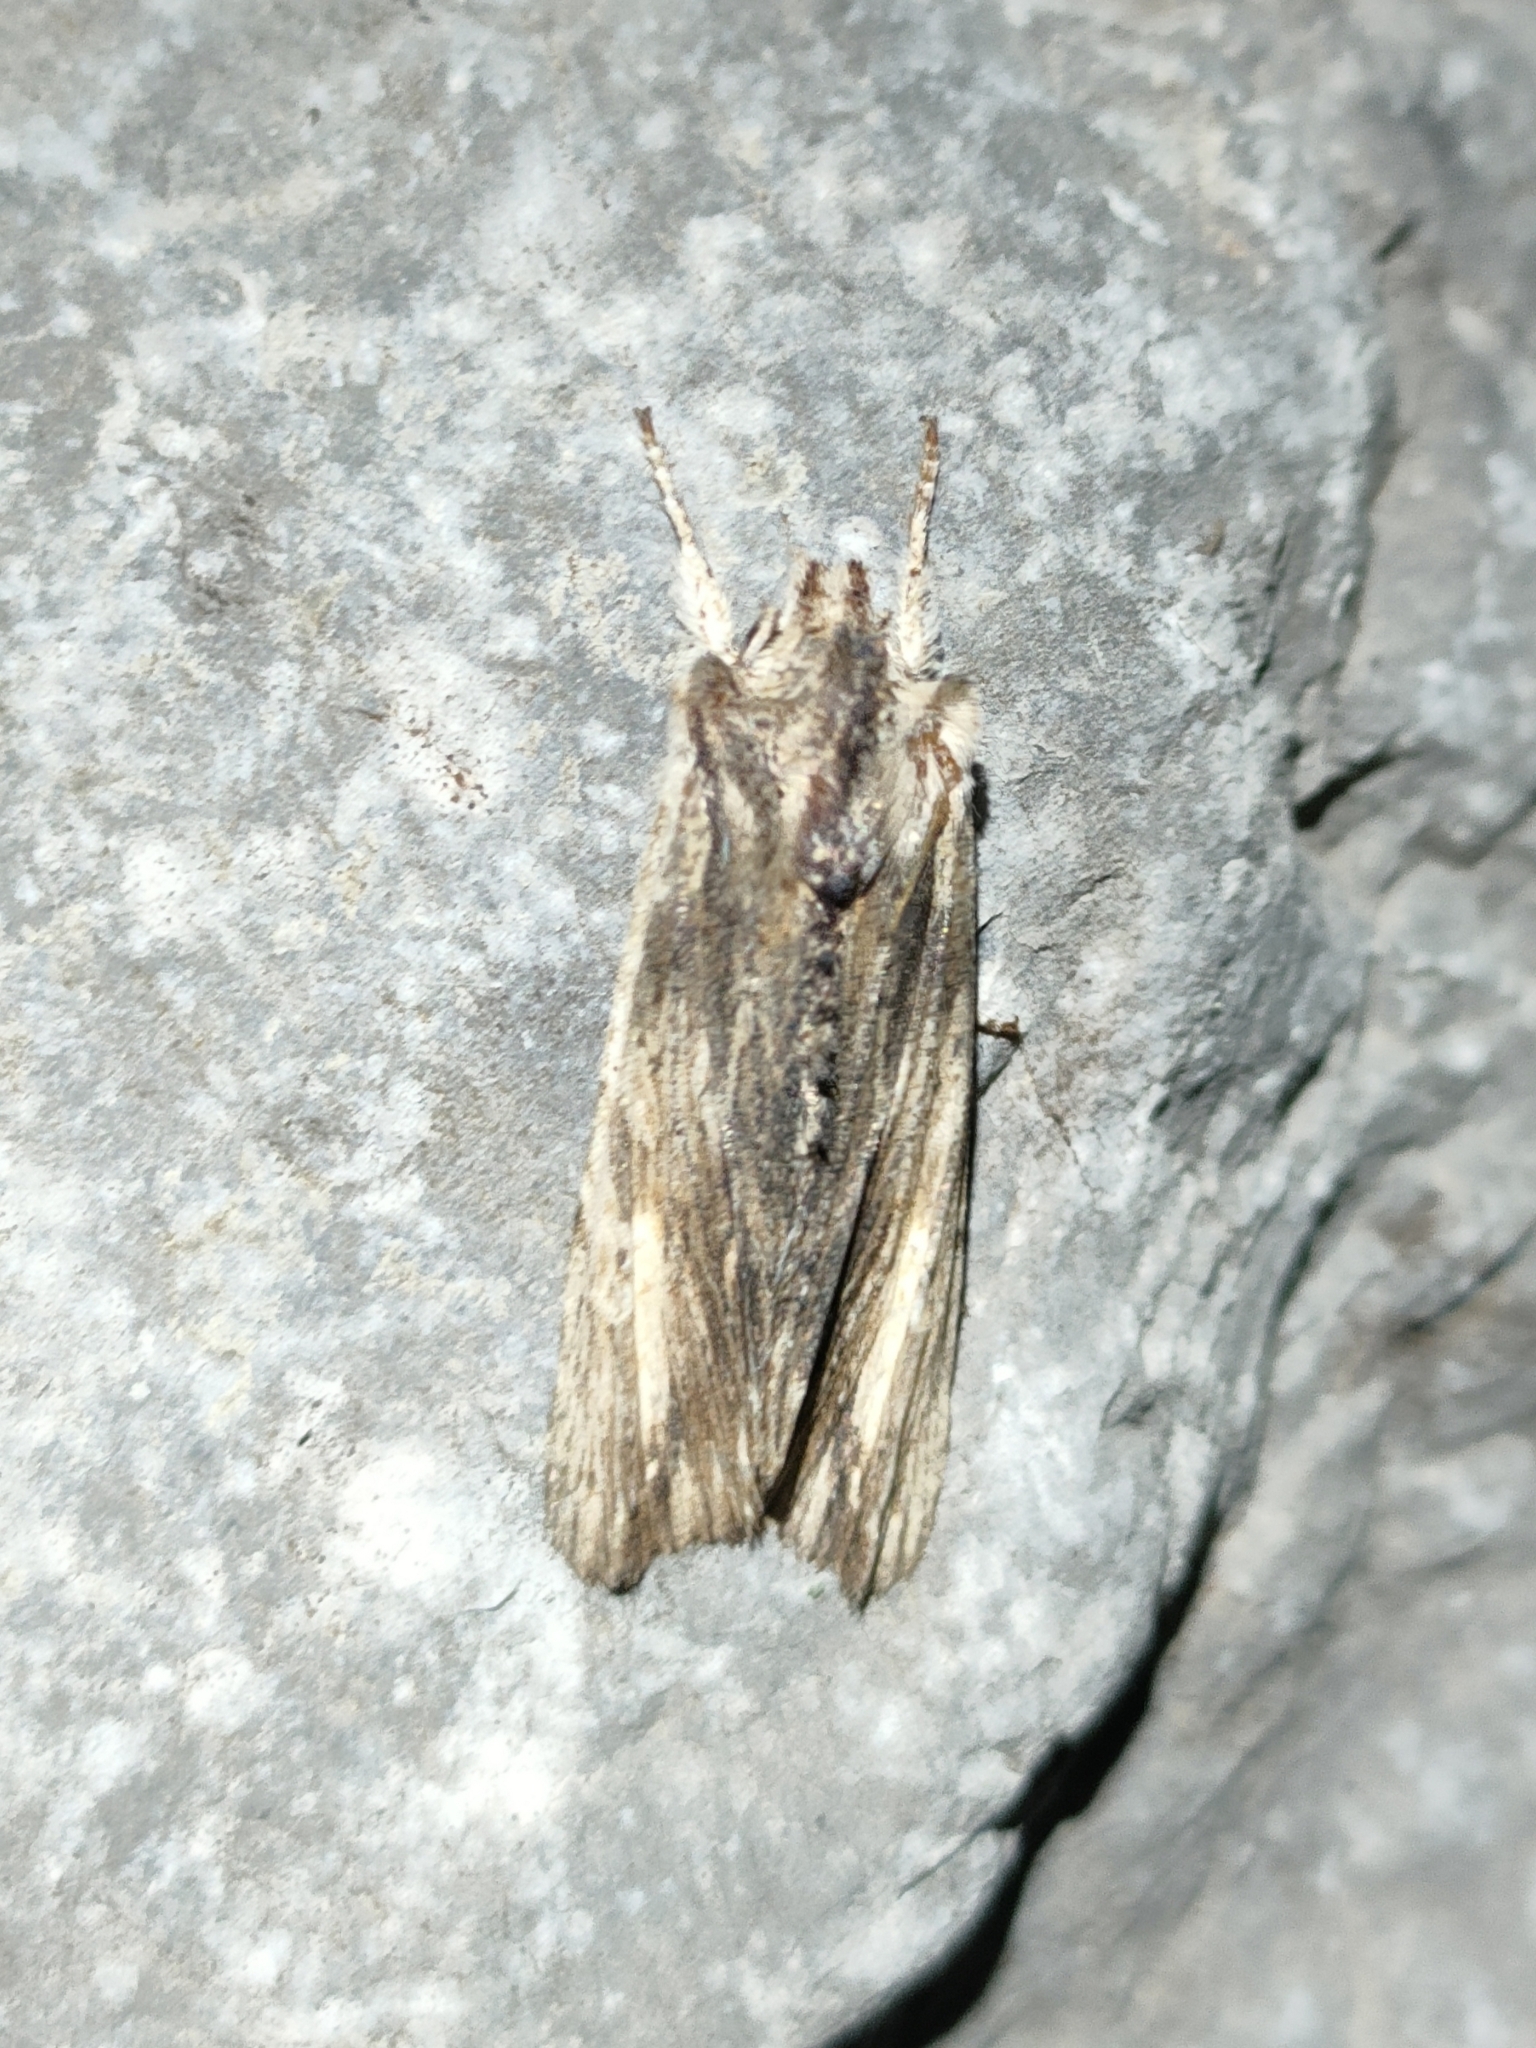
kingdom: Animalia
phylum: Arthropoda
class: Insecta
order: Lepidoptera
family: Noctuidae
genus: Lithophane
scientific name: Lithophane semibrunnea
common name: Tawny pinion
